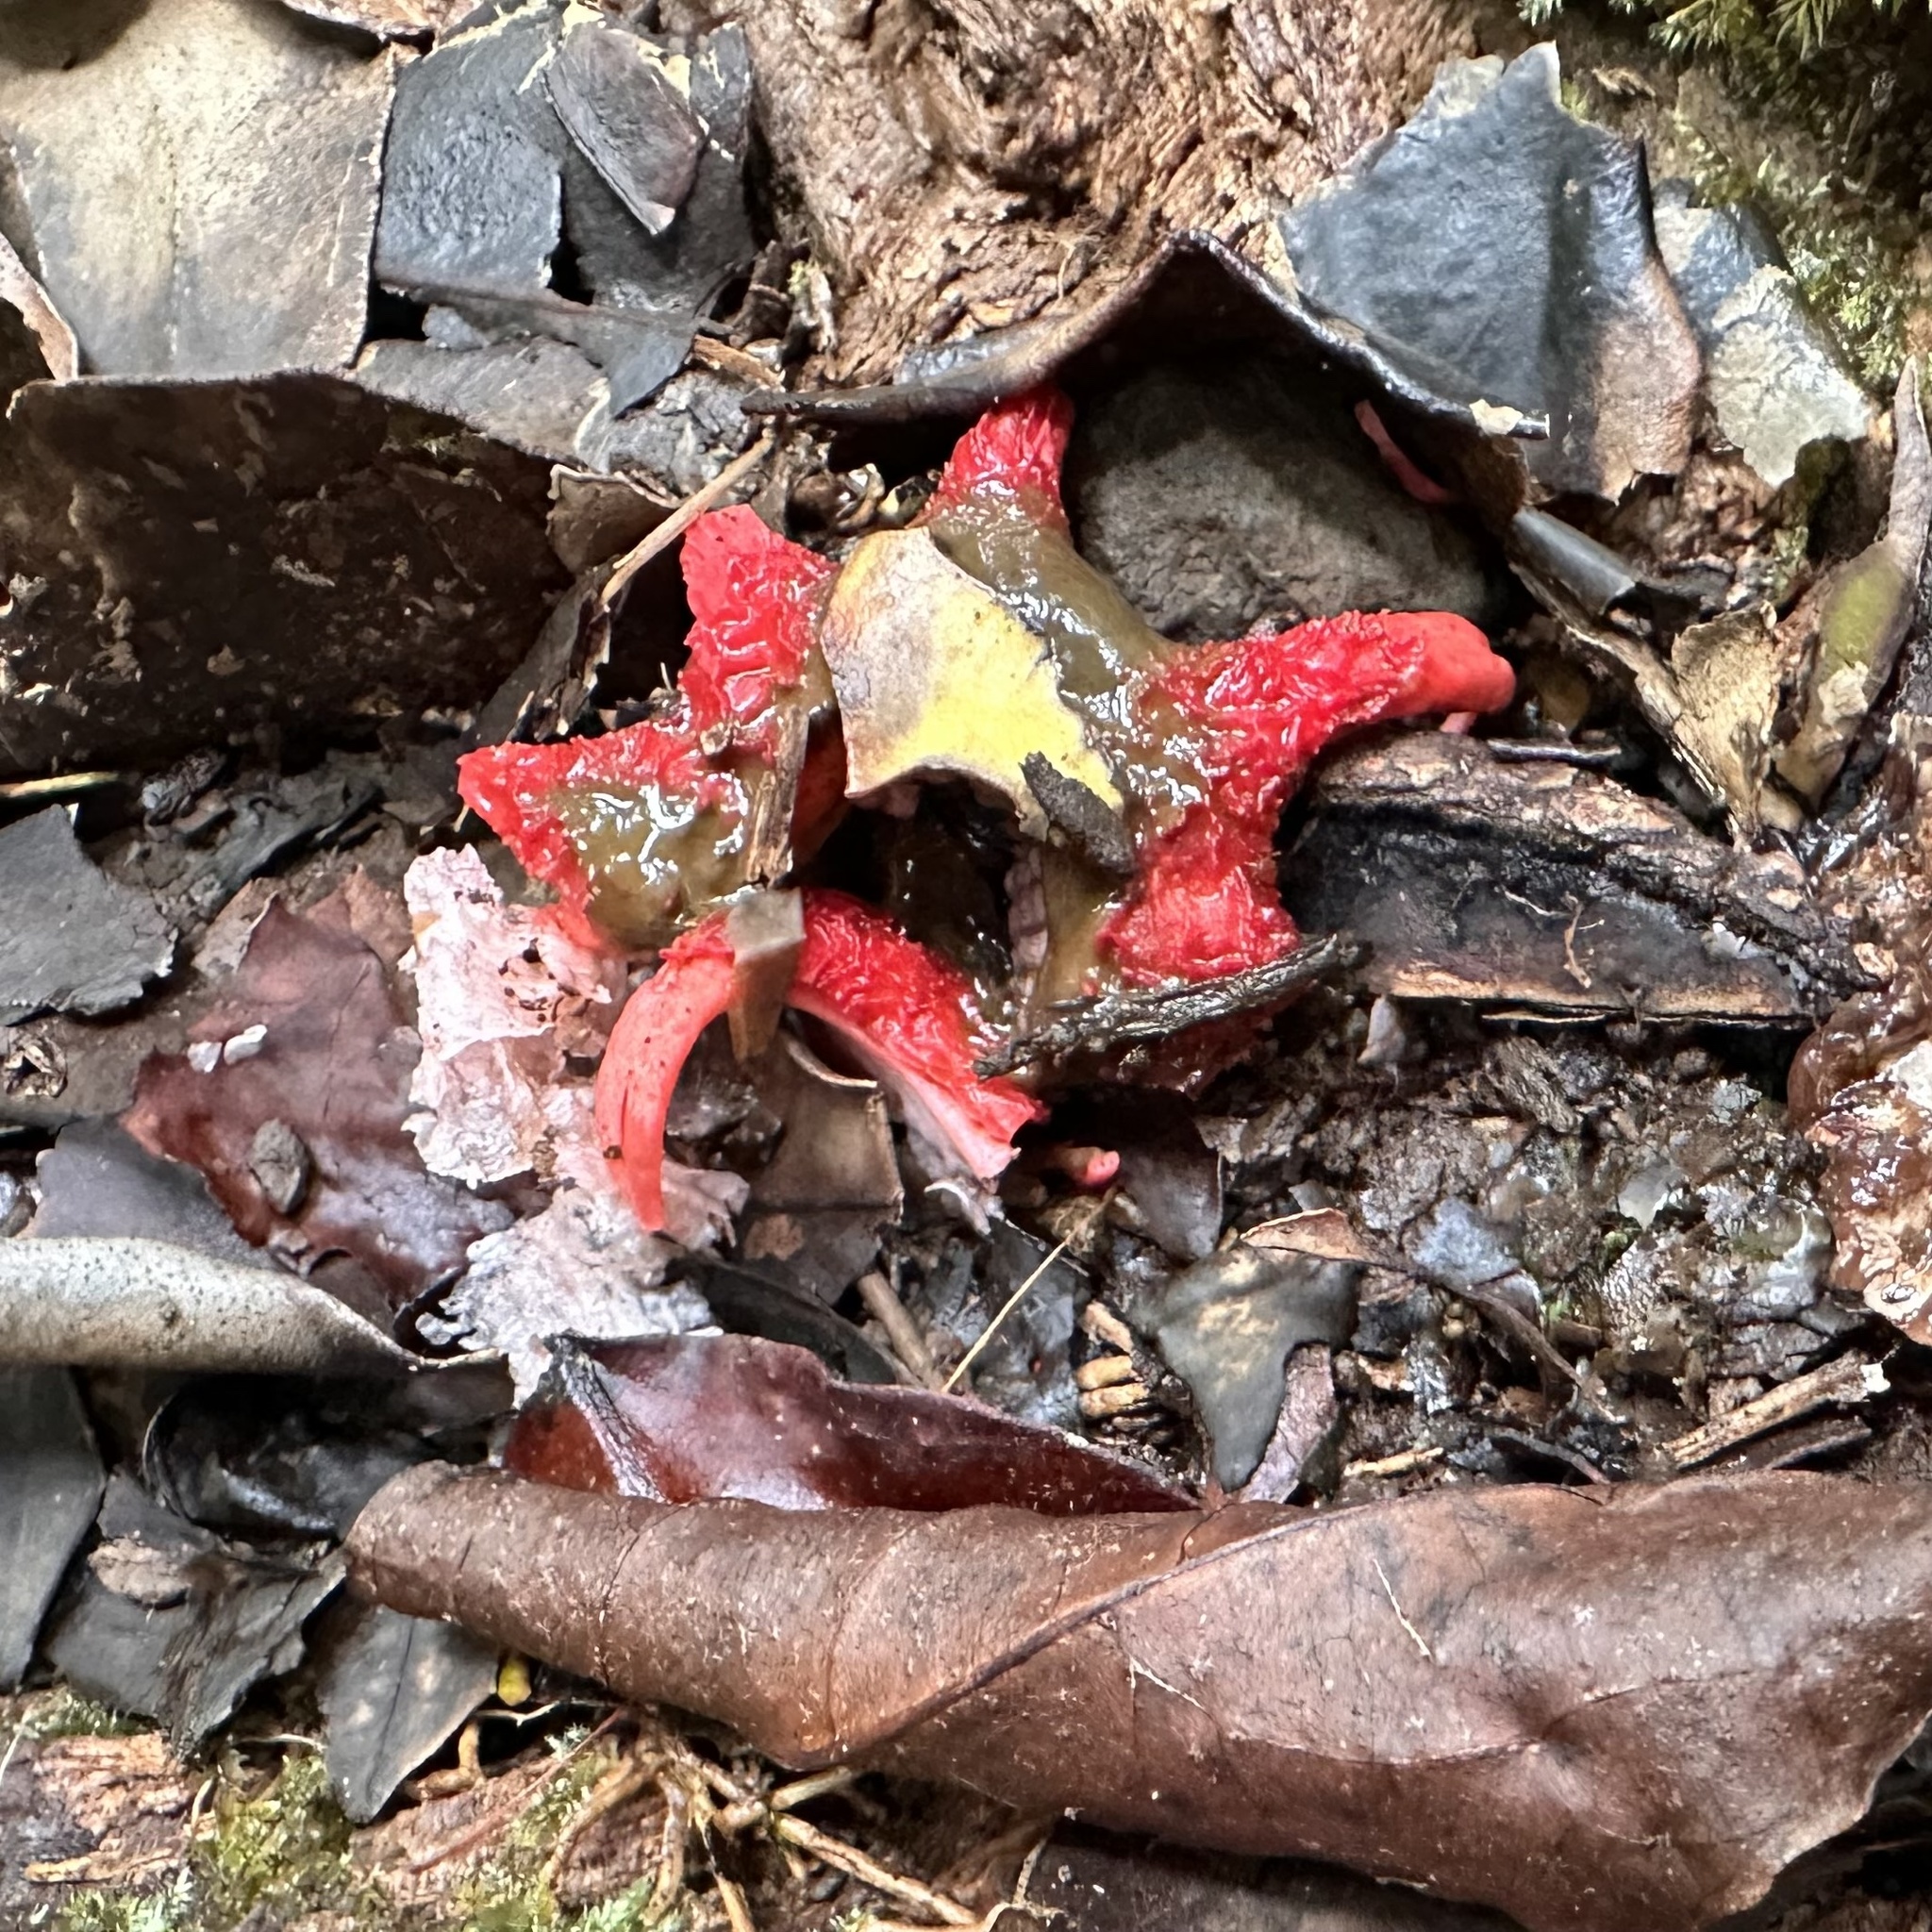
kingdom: Fungi
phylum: Basidiomycota
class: Agaricomycetes
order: Phallales
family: Phallaceae
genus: Aseroe
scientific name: Aseroe rubra
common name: Starfish fungus
